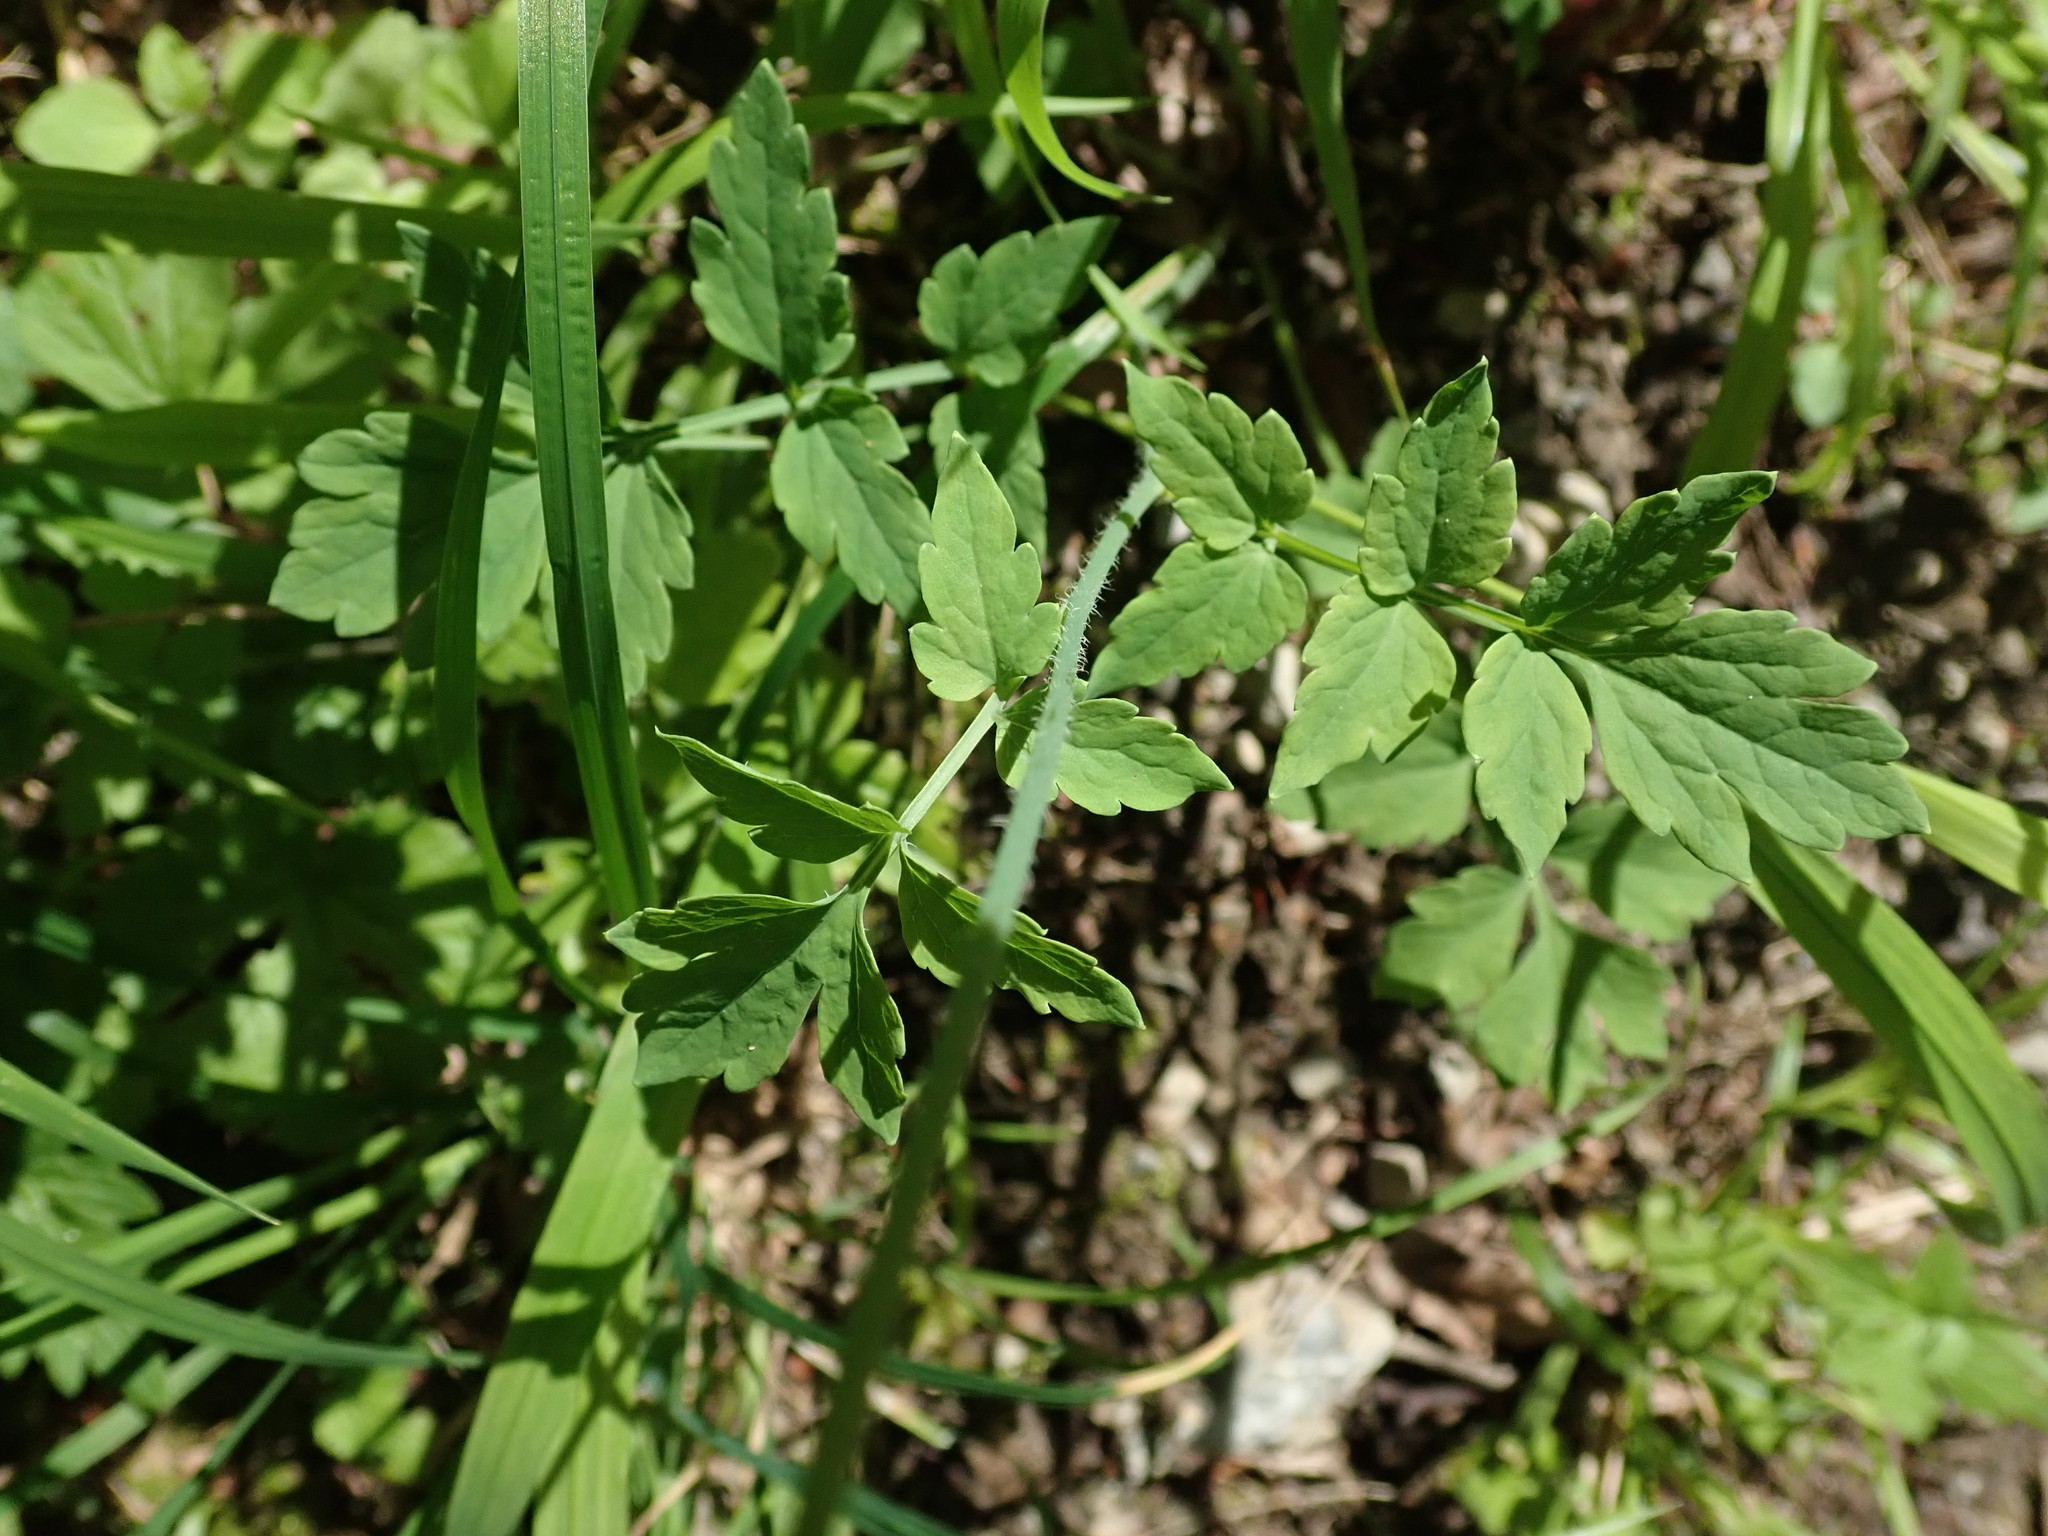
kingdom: Plantae
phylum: Tracheophyta
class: Magnoliopsida
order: Ranunculales
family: Papaveraceae
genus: Papaver
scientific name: Papaver cambricum
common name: Poppy
